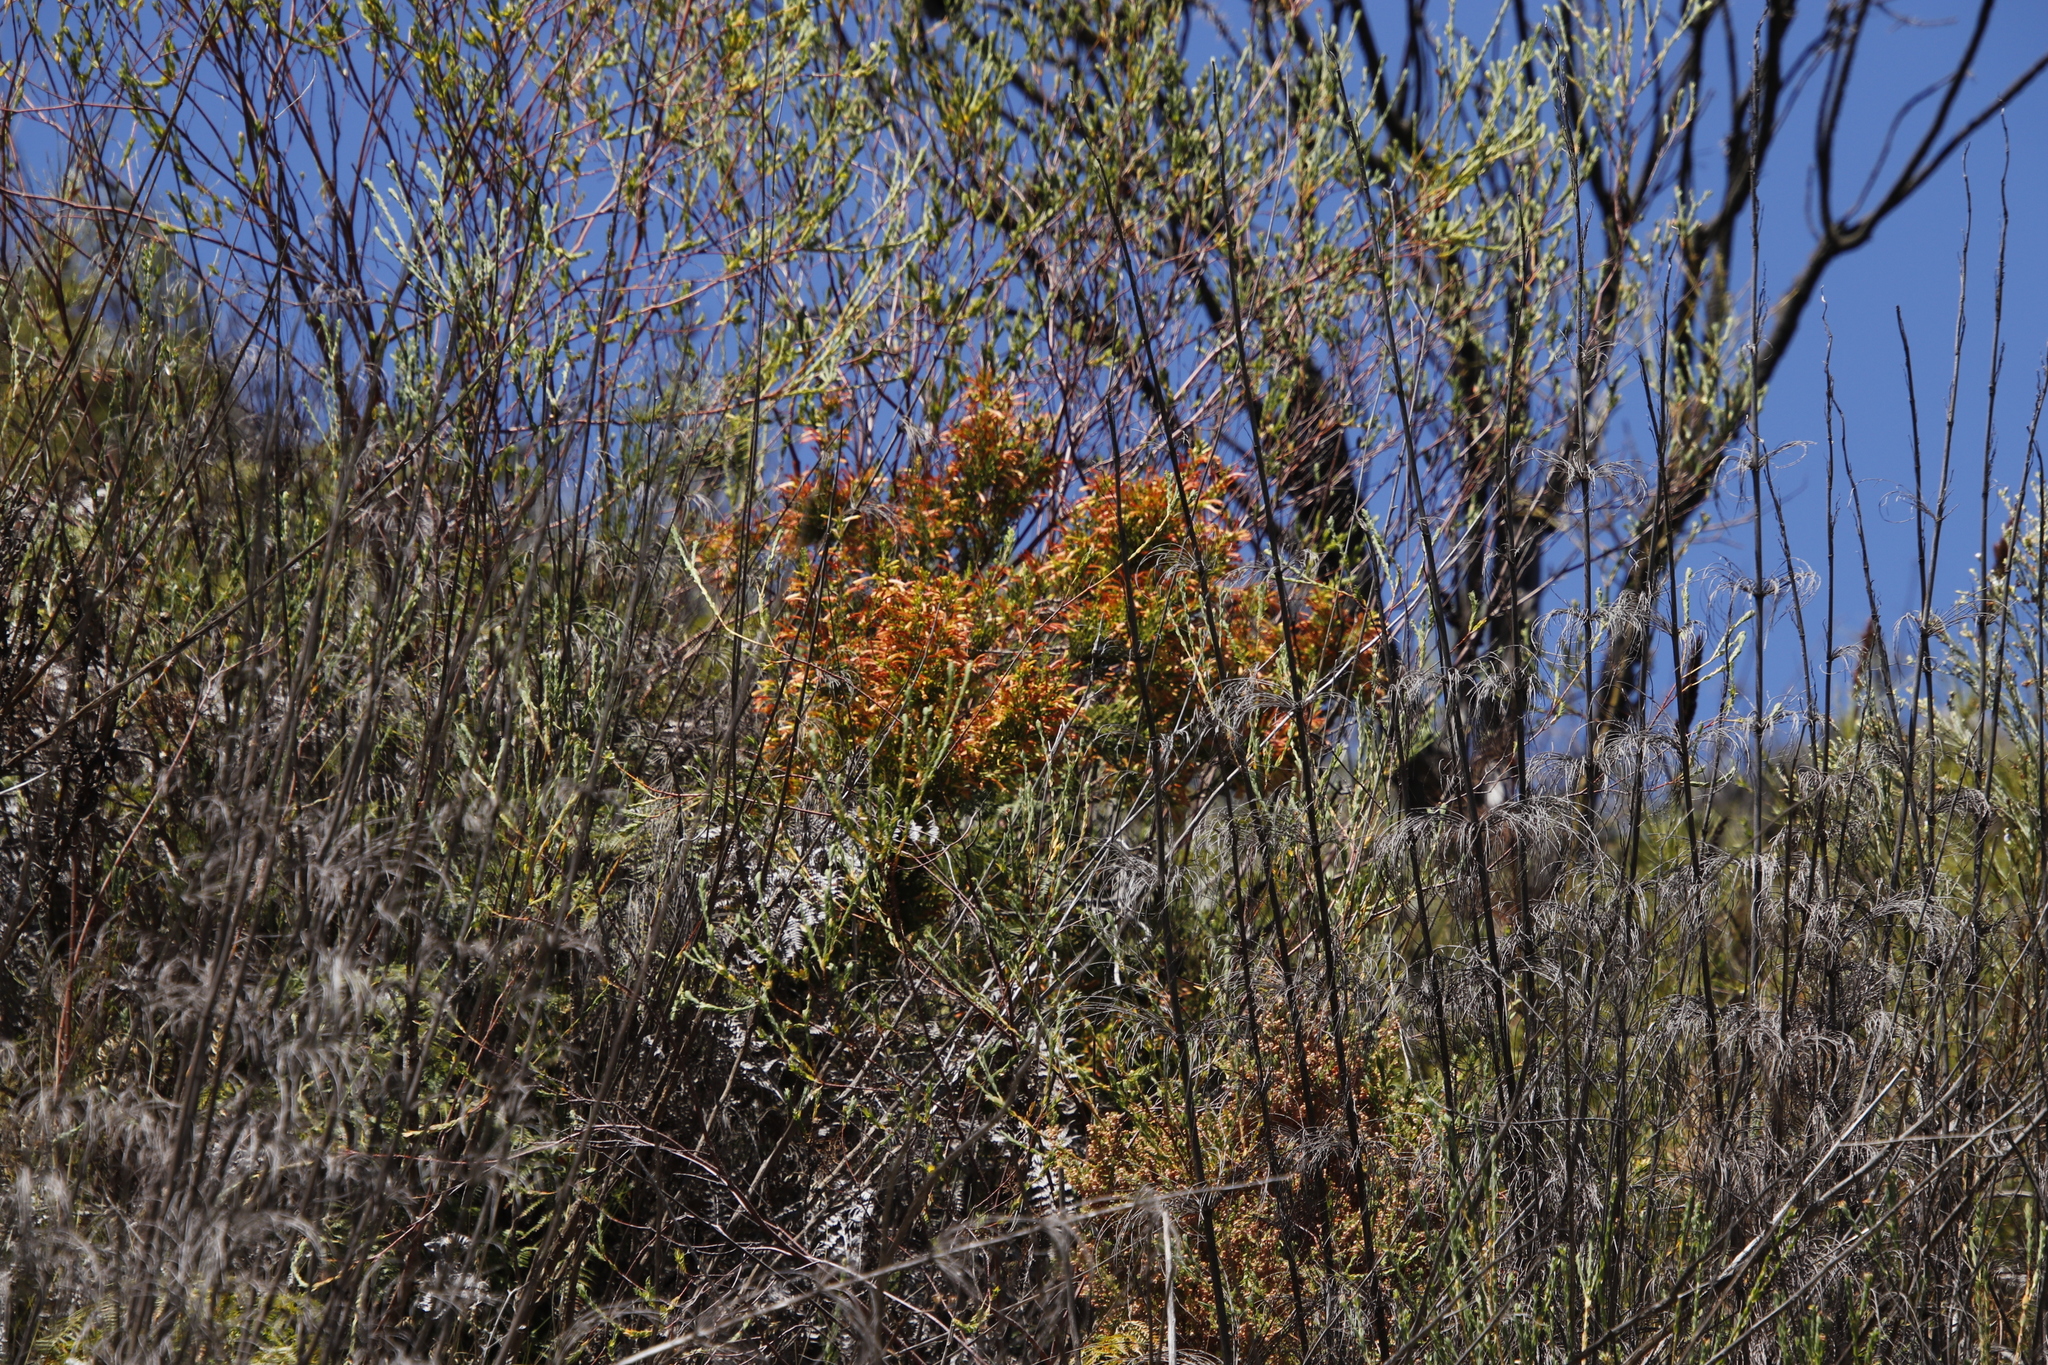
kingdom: Plantae
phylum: Tracheophyta
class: Magnoliopsida
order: Ericales
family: Ericaceae
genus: Erica
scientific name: Erica curviflora
